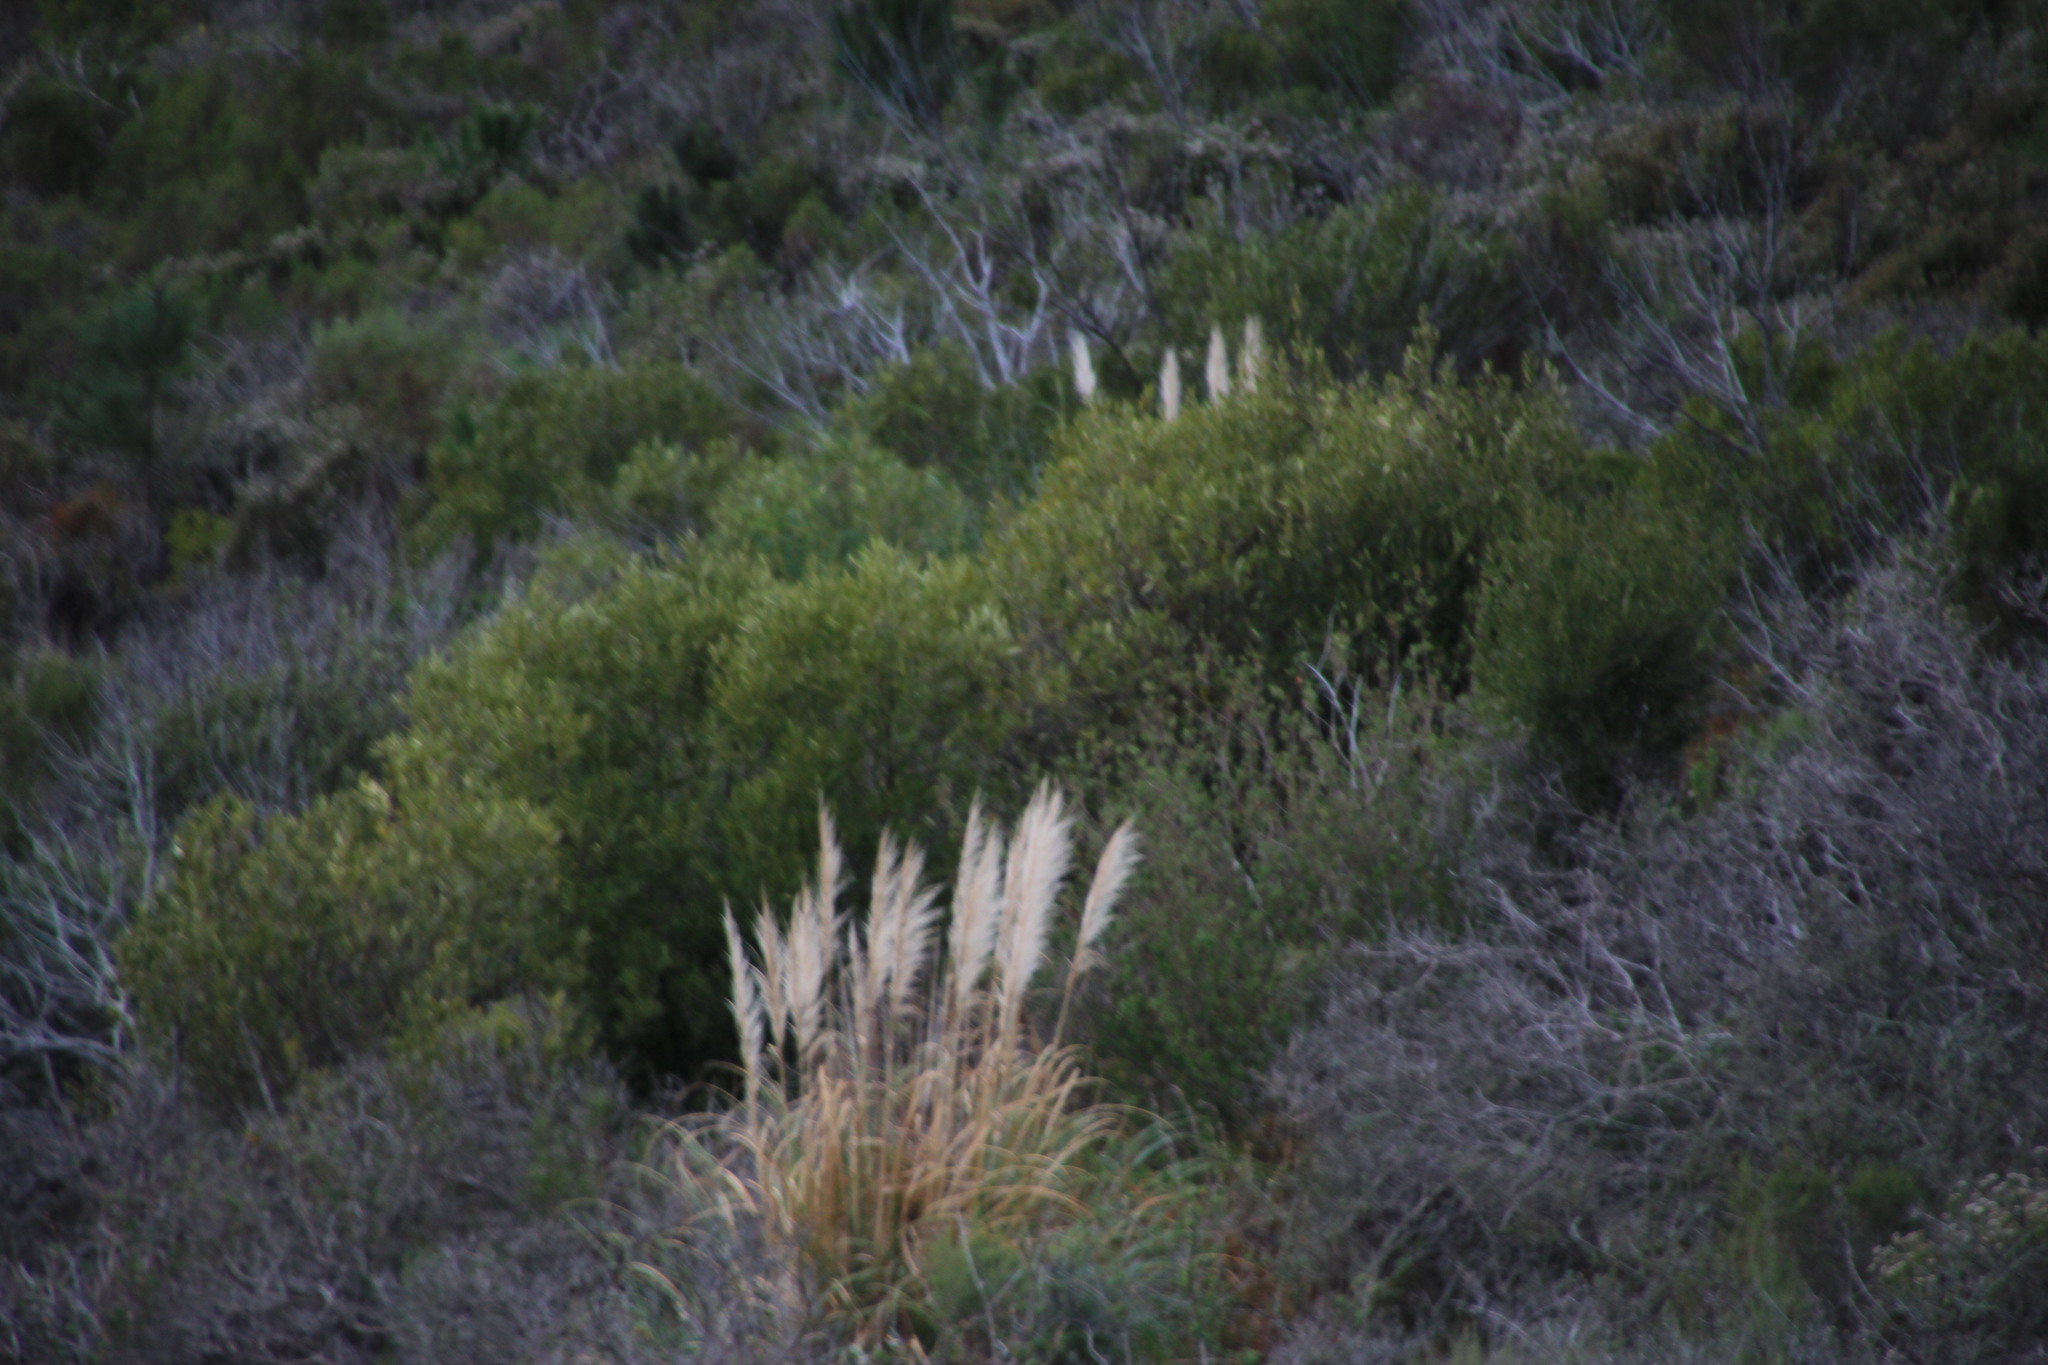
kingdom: Plantae
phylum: Tracheophyta
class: Liliopsida
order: Poales
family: Poaceae
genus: Cortaderia
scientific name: Cortaderia selloana
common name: Uruguayan pampas grass
